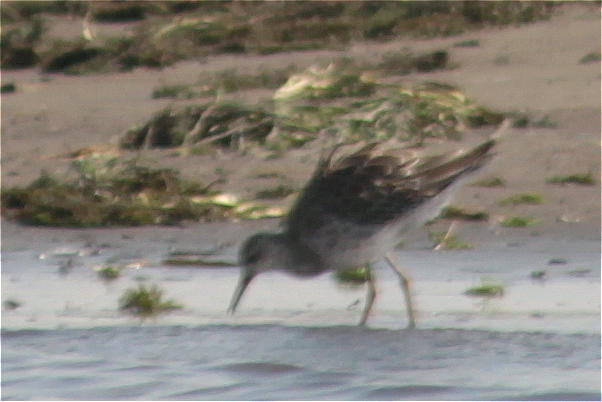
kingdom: Animalia
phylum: Chordata
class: Aves
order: Charadriiformes
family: Scolopacidae
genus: Calidris
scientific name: Calidris pugnax
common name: Ruff
